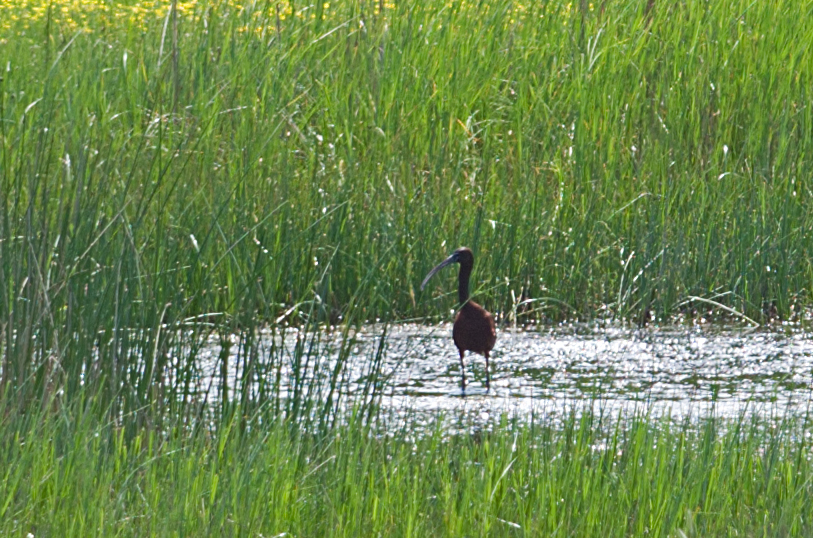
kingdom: Animalia
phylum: Chordata
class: Aves
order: Pelecaniformes
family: Threskiornithidae
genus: Plegadis
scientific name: Plegadis falcinellus
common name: Glossy ibis
